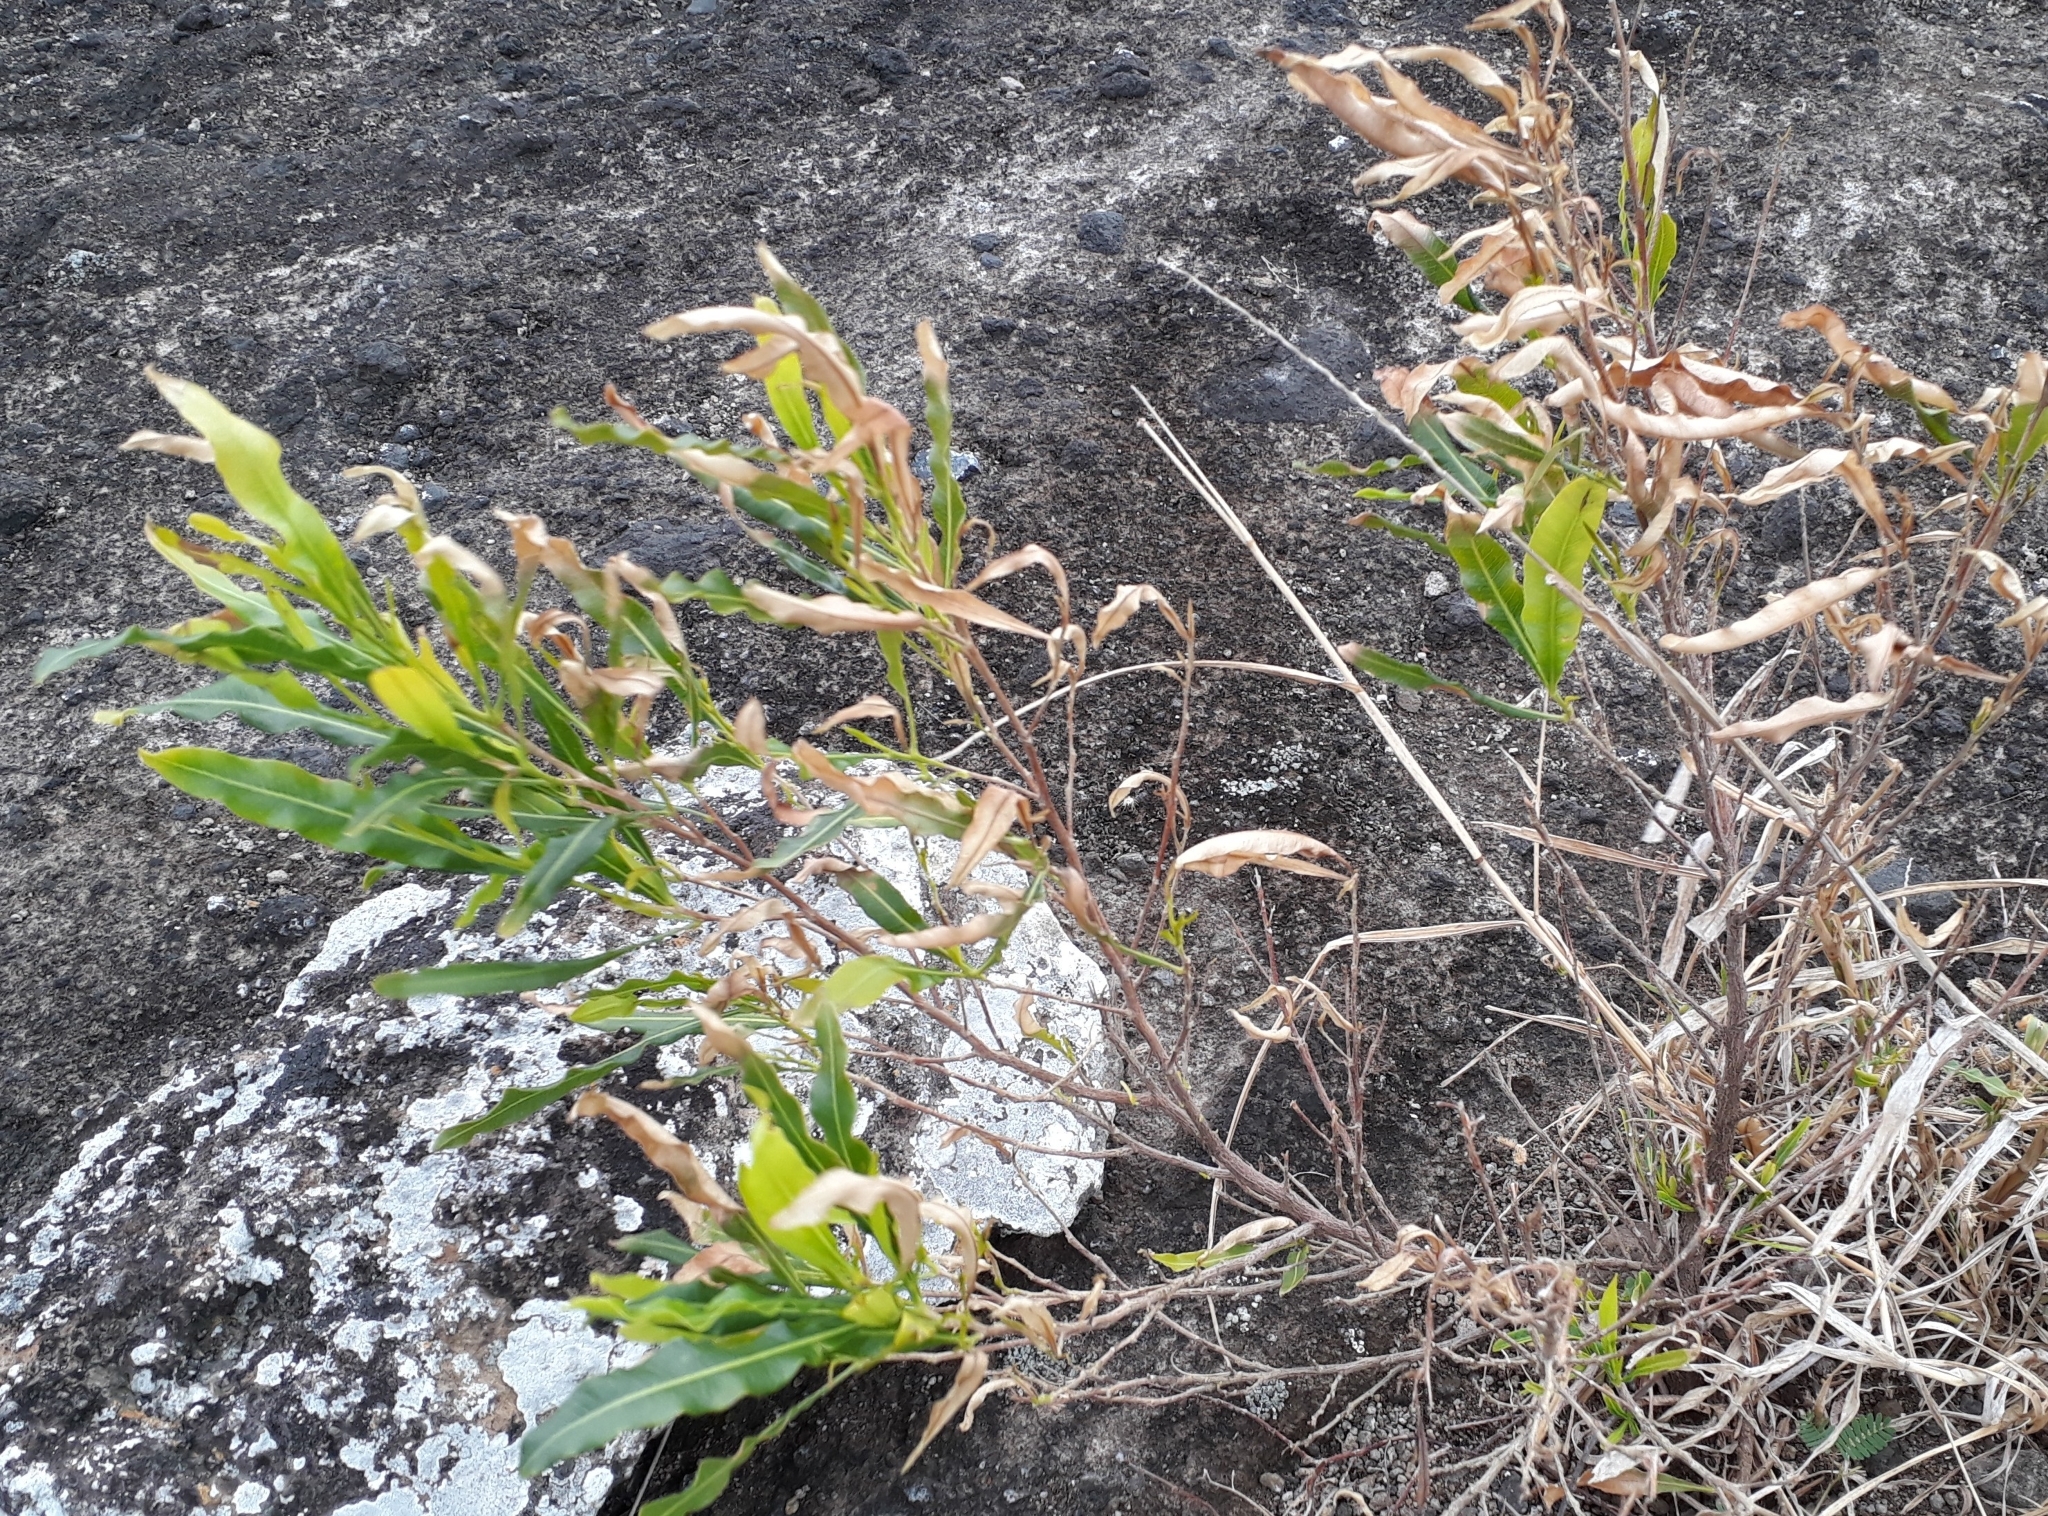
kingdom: Plantae
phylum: Tracheophyta
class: Magnoliopsida
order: Sapindales
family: Sapindaceae
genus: Dodonaea
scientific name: Dodonaea viscosa
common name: Hopbush
